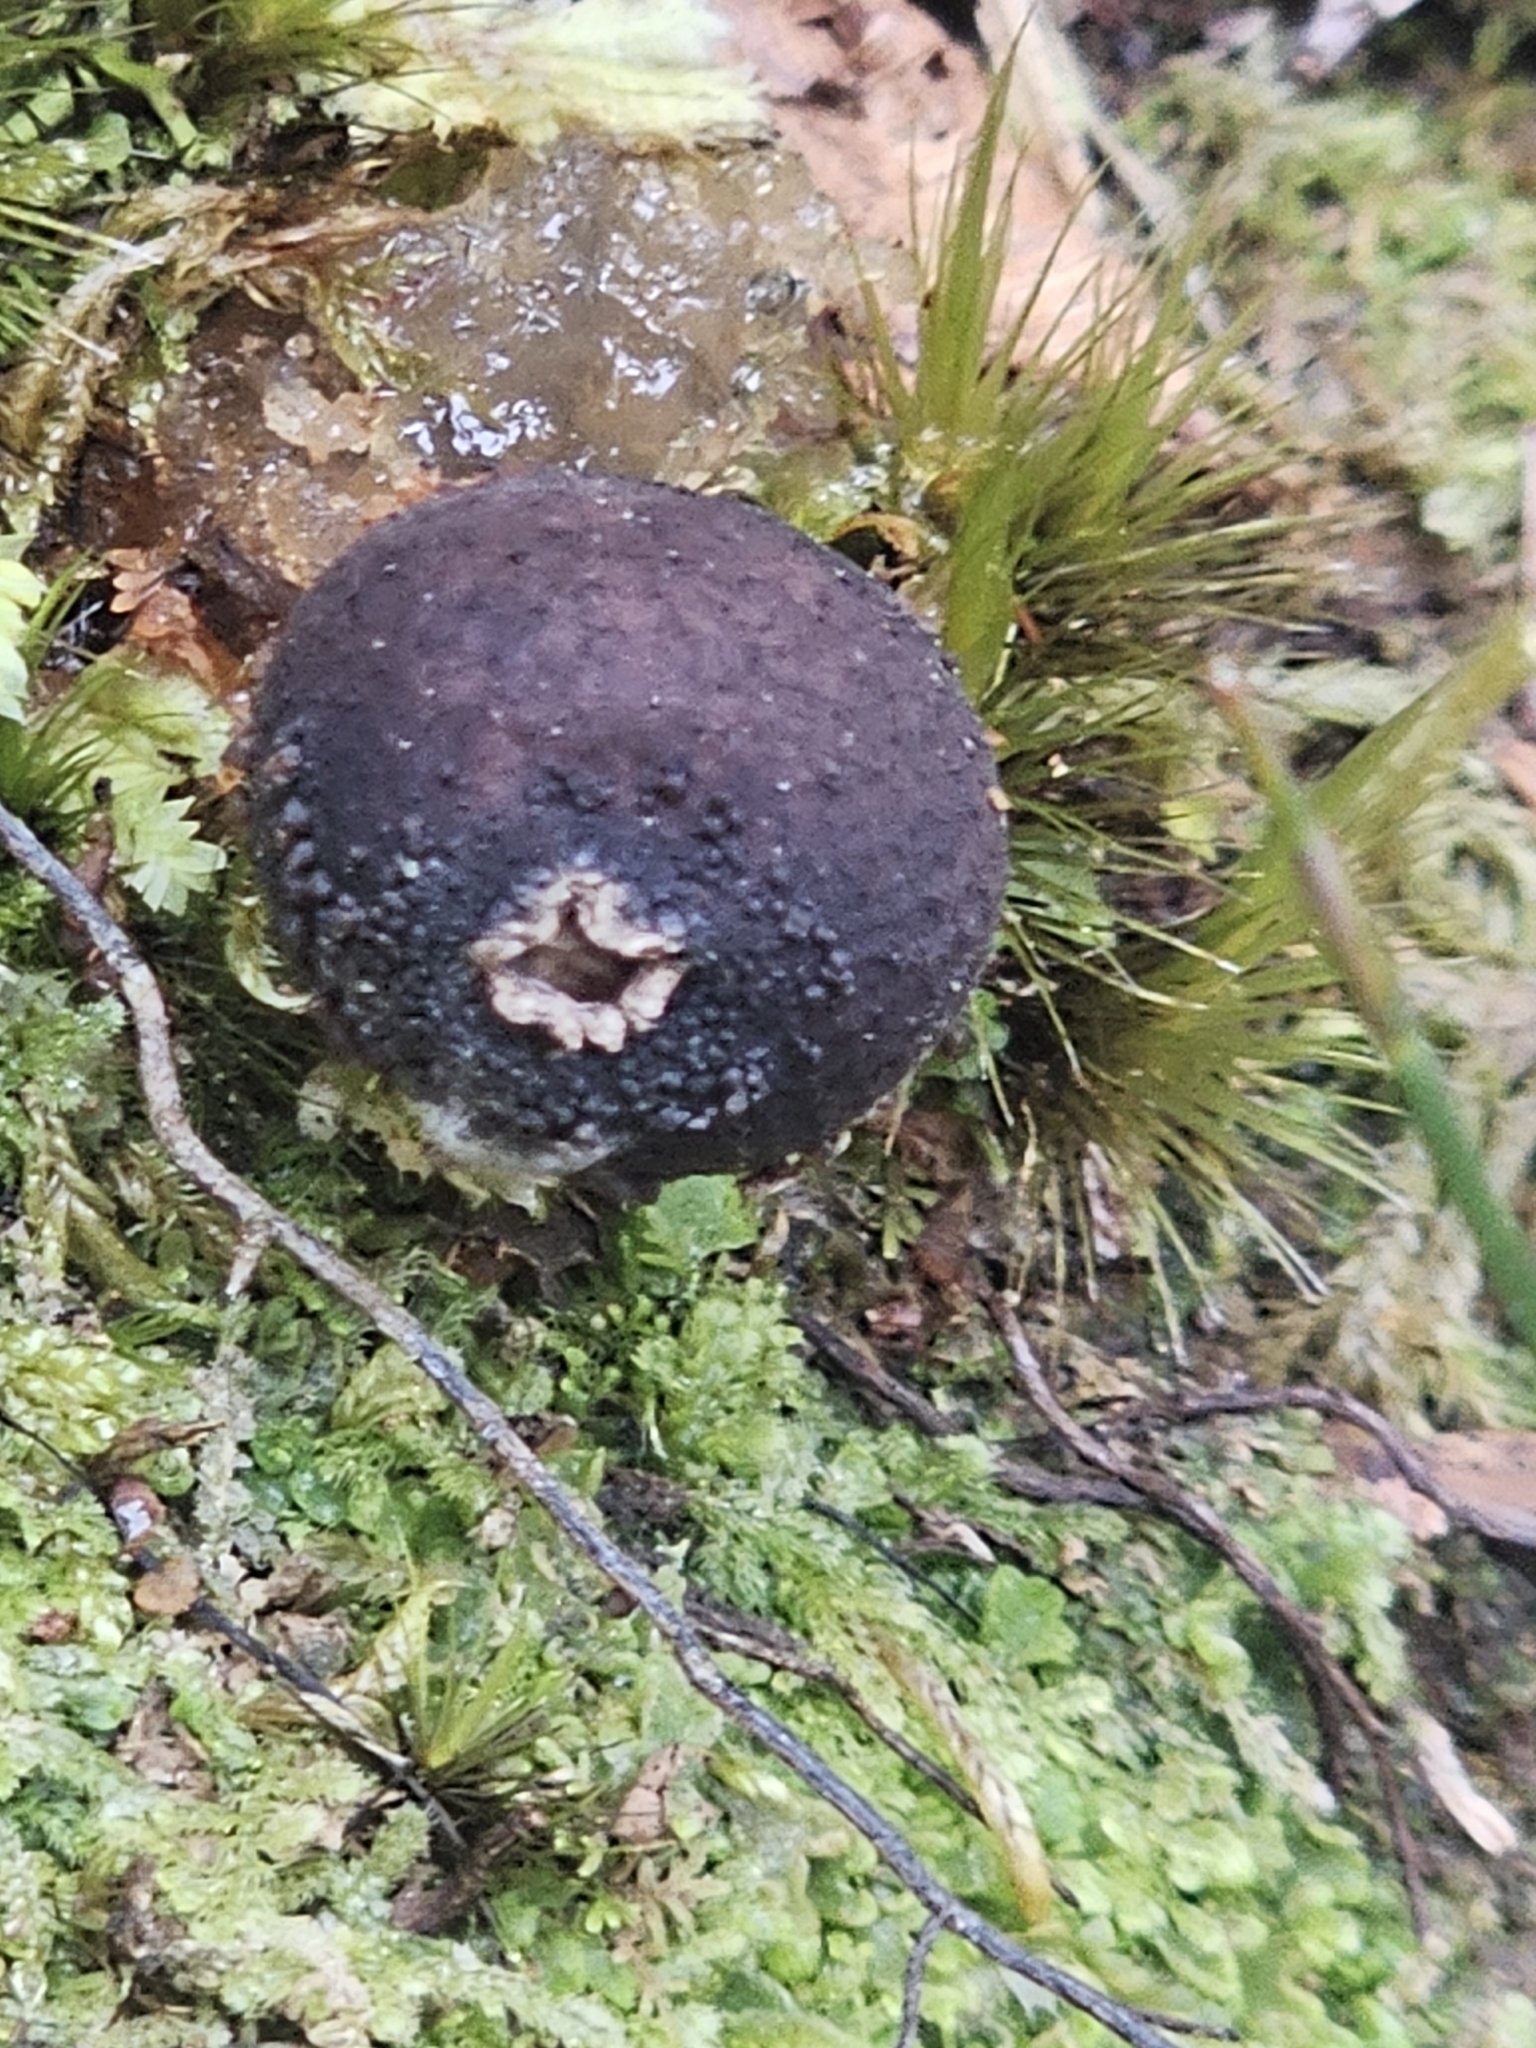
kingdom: Fungi
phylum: Basidiomycota
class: Agaricomycetes
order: Boletales
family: Calostomataceae
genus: Calostoma
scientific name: Calostoma fuscum
